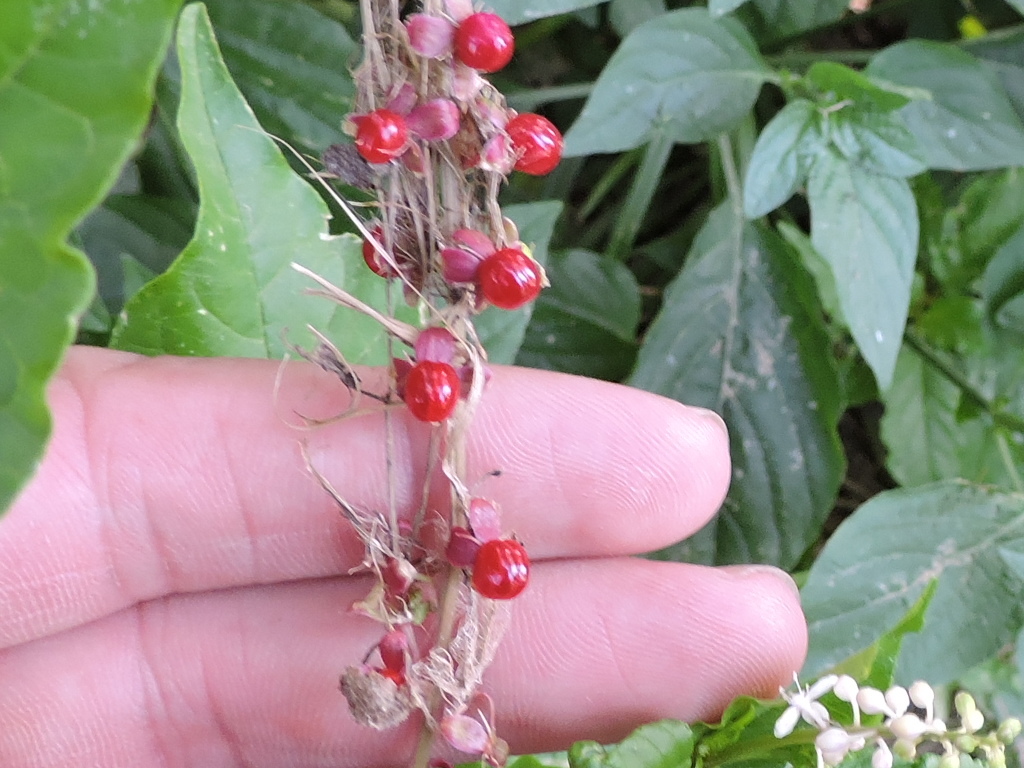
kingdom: Plantae
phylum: Tracheophyta
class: Magnoliopsida
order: Caryophyllales
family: Phytolaccaceae
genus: Rivina
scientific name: Rivina humilis
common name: Rougeplant
